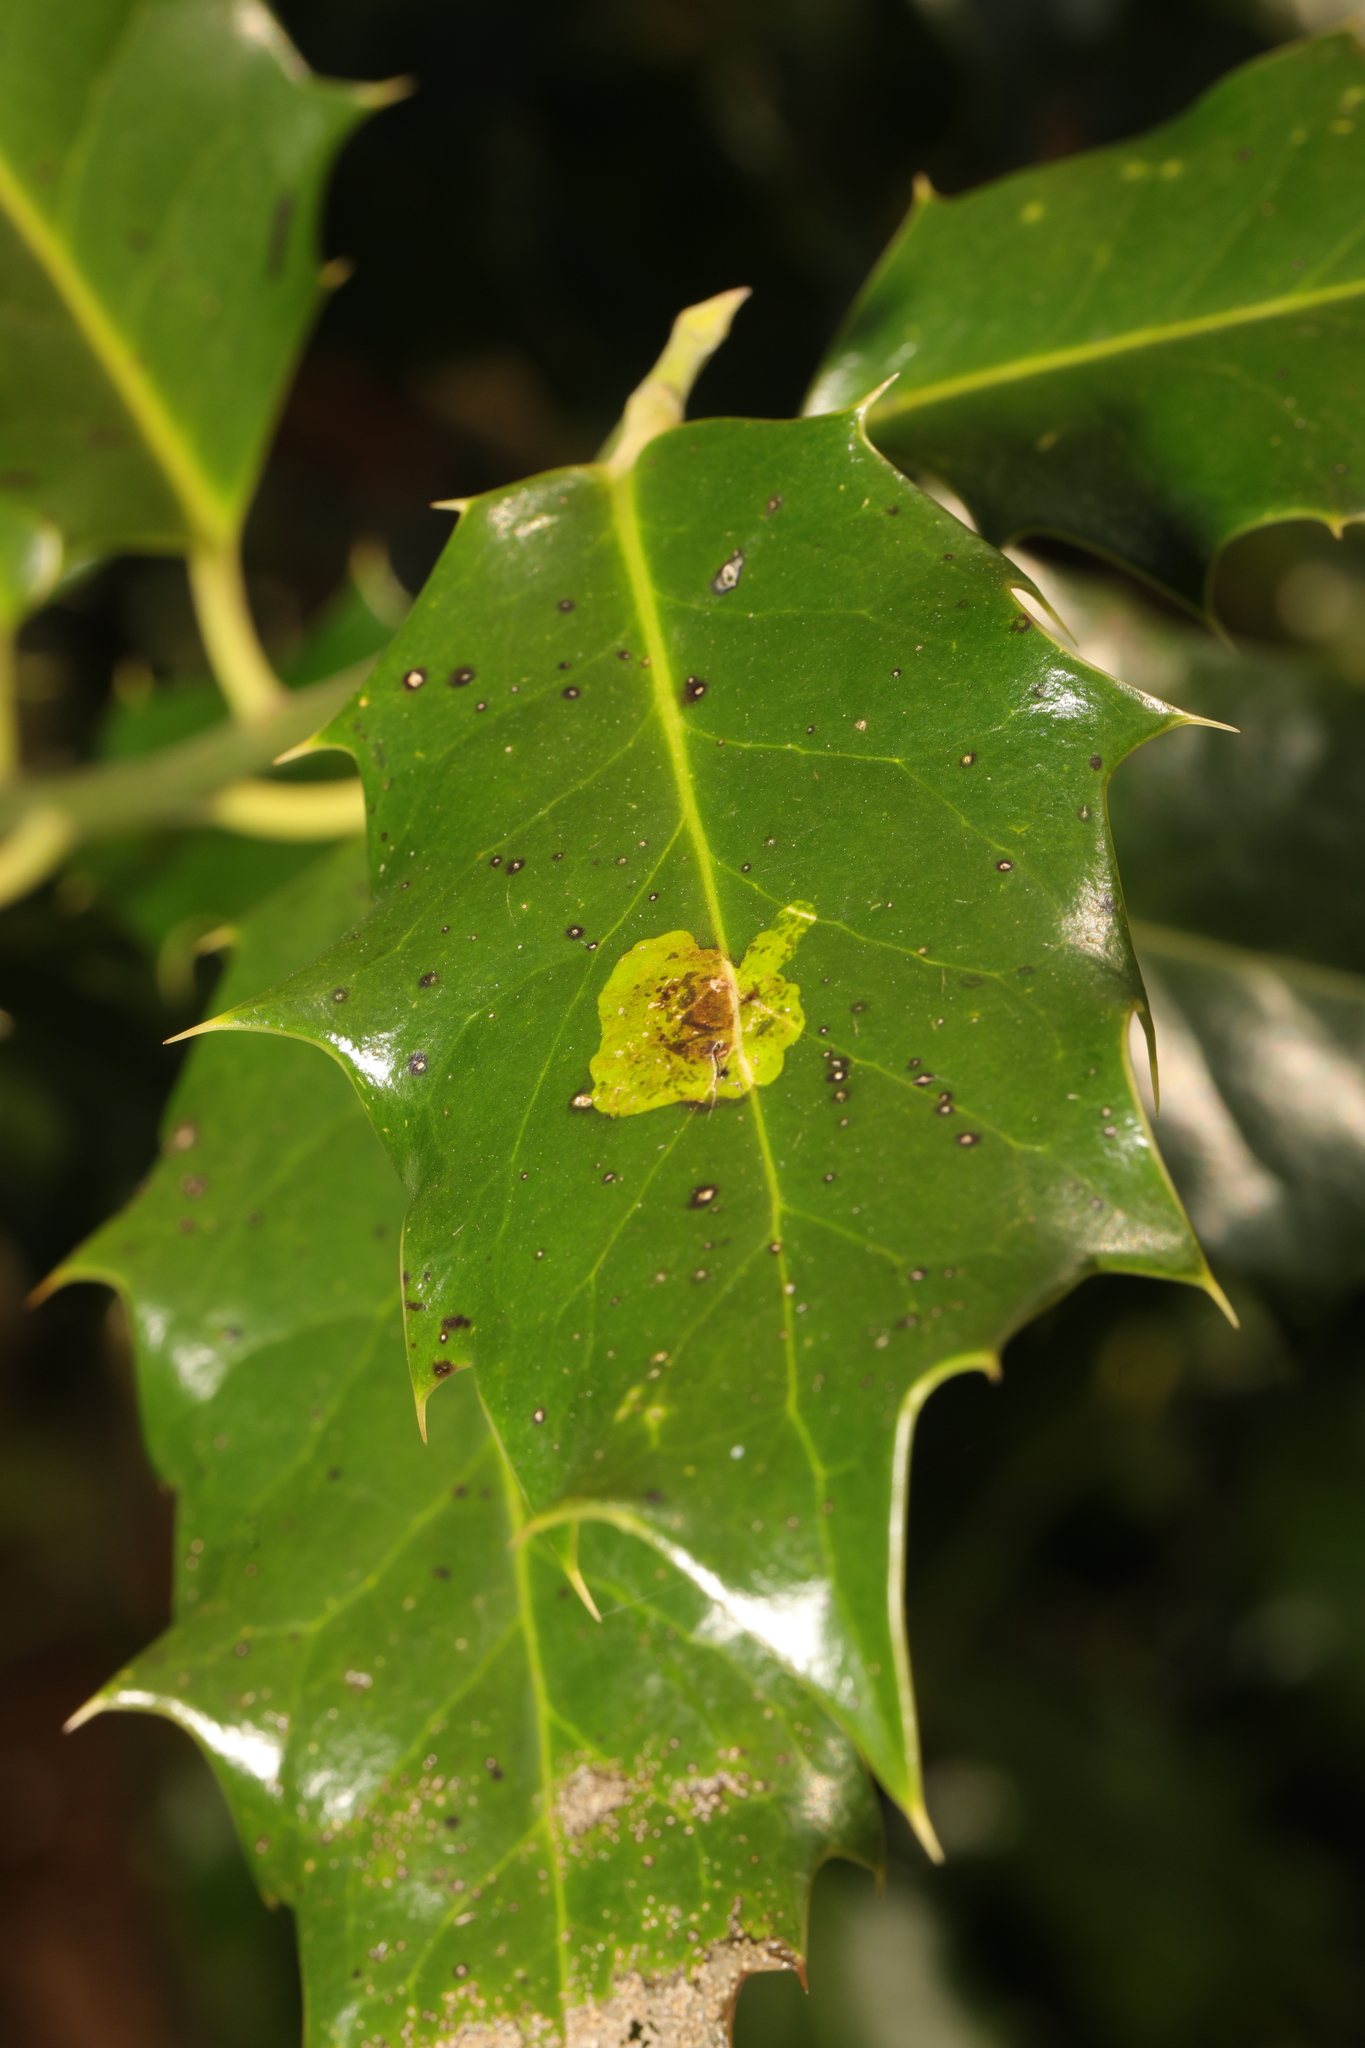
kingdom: Animalia
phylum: Arthropoda
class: Insecta
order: Diptera
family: Agromyzidae
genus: Phytomyza
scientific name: Phytomyza ilicis
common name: Holly leafminer
